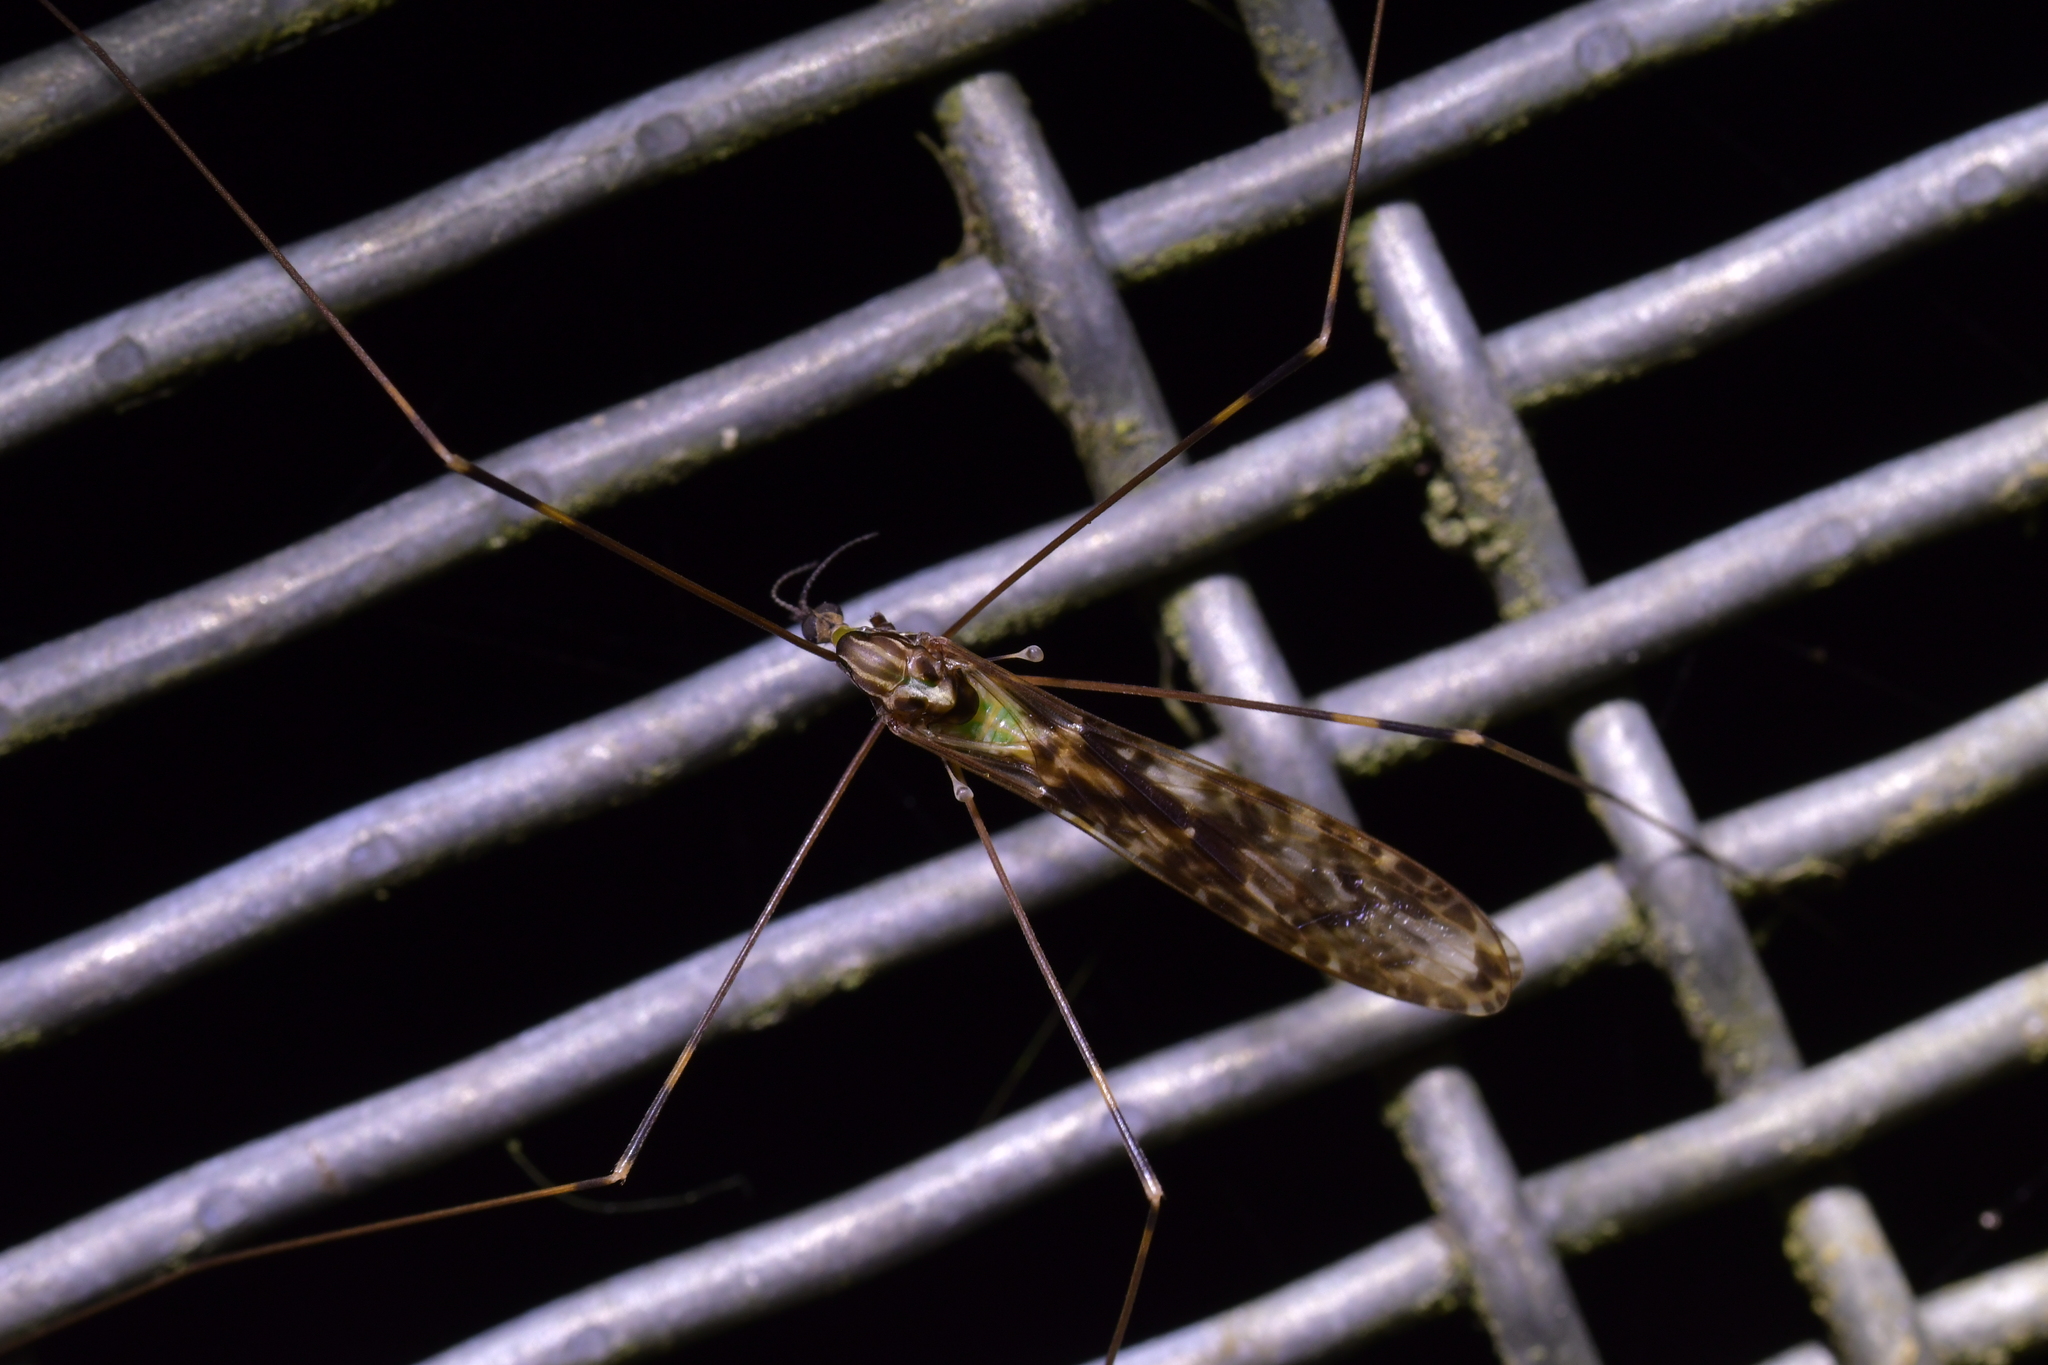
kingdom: Animalia
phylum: Arthropoda
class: Insecta
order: Diptera
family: Limoniidae
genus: Discobola
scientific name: Discobola dohrni
